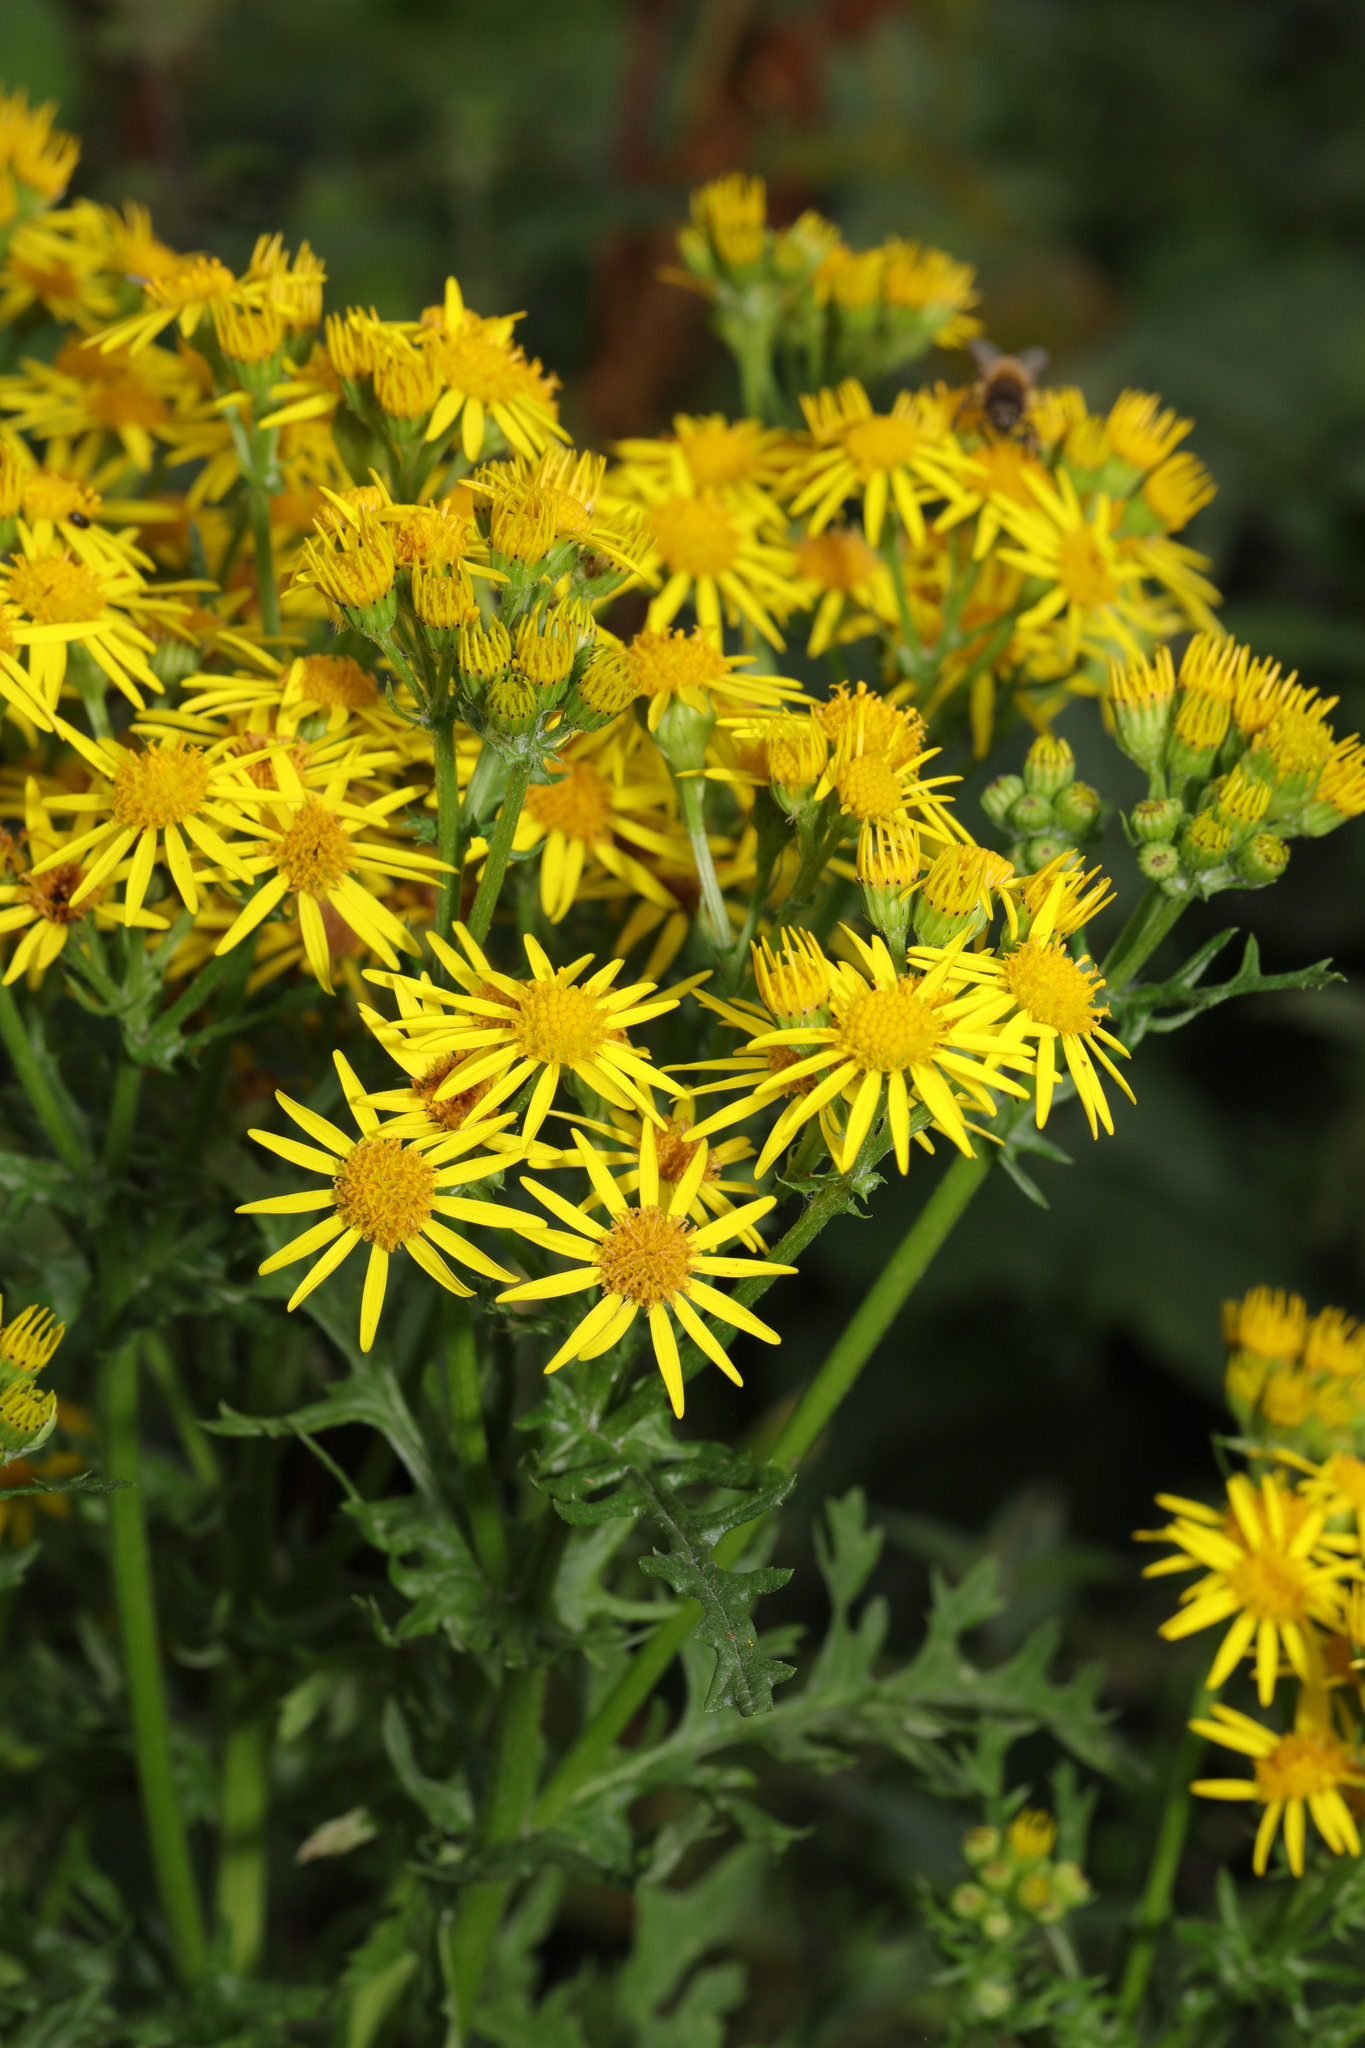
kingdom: Plantae
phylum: Tracheophyta
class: Magnoliopsida
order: Asterales
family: Asteraceae
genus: Jacobaea
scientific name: Jacobaea vulgaris
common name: Stinking willie
